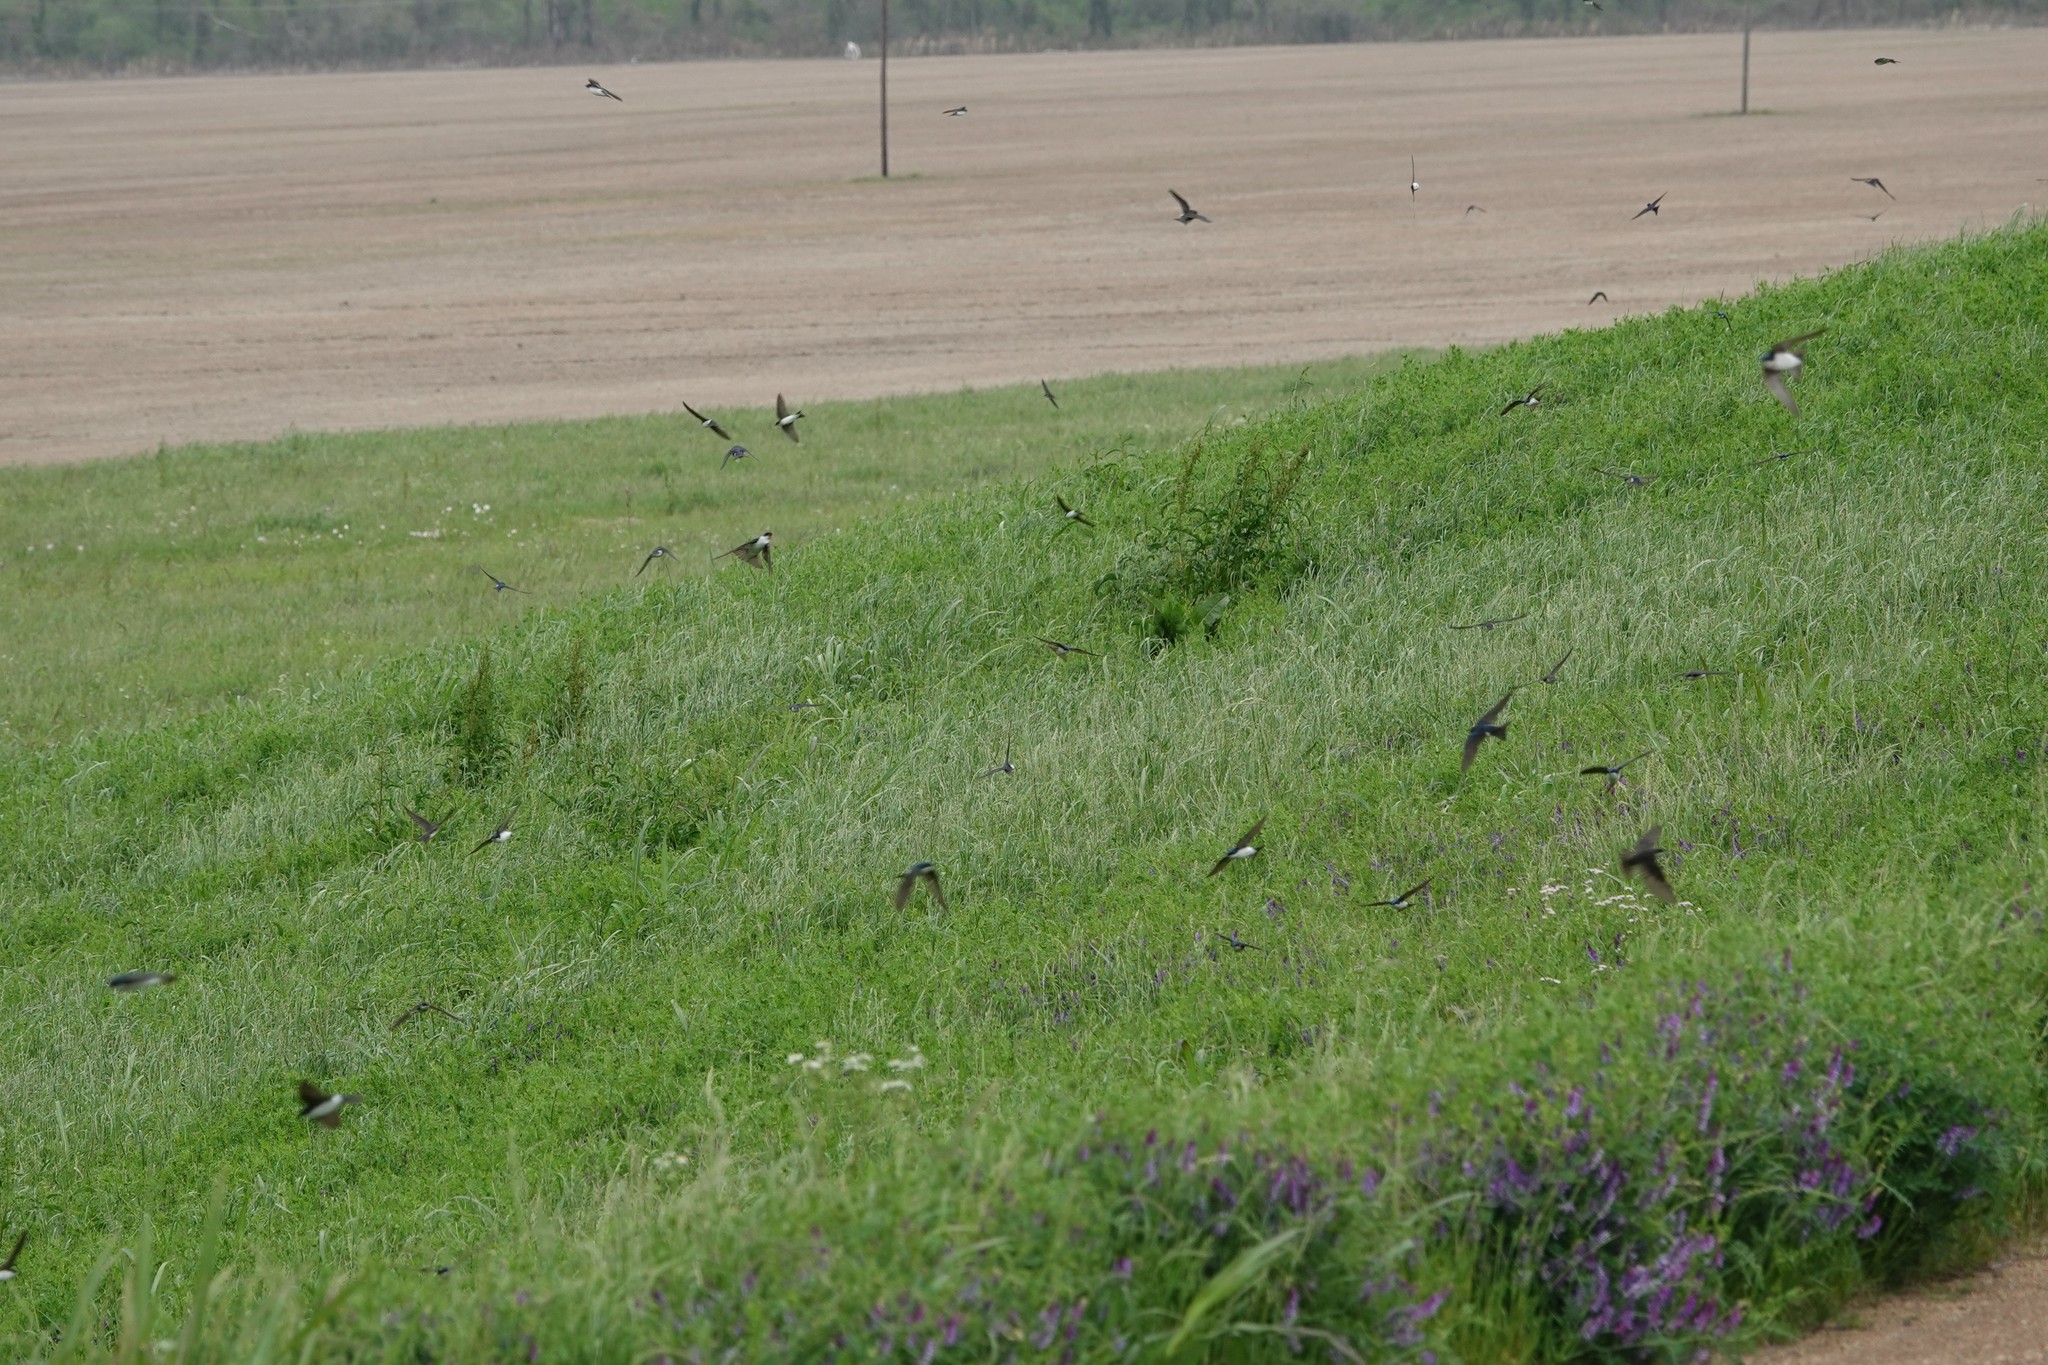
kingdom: Animalia
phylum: Chordata
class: Aves
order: Passeriformes
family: Hirundinidae
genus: Tachycineta
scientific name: Tachycineta bicolor
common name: Tree swallow
